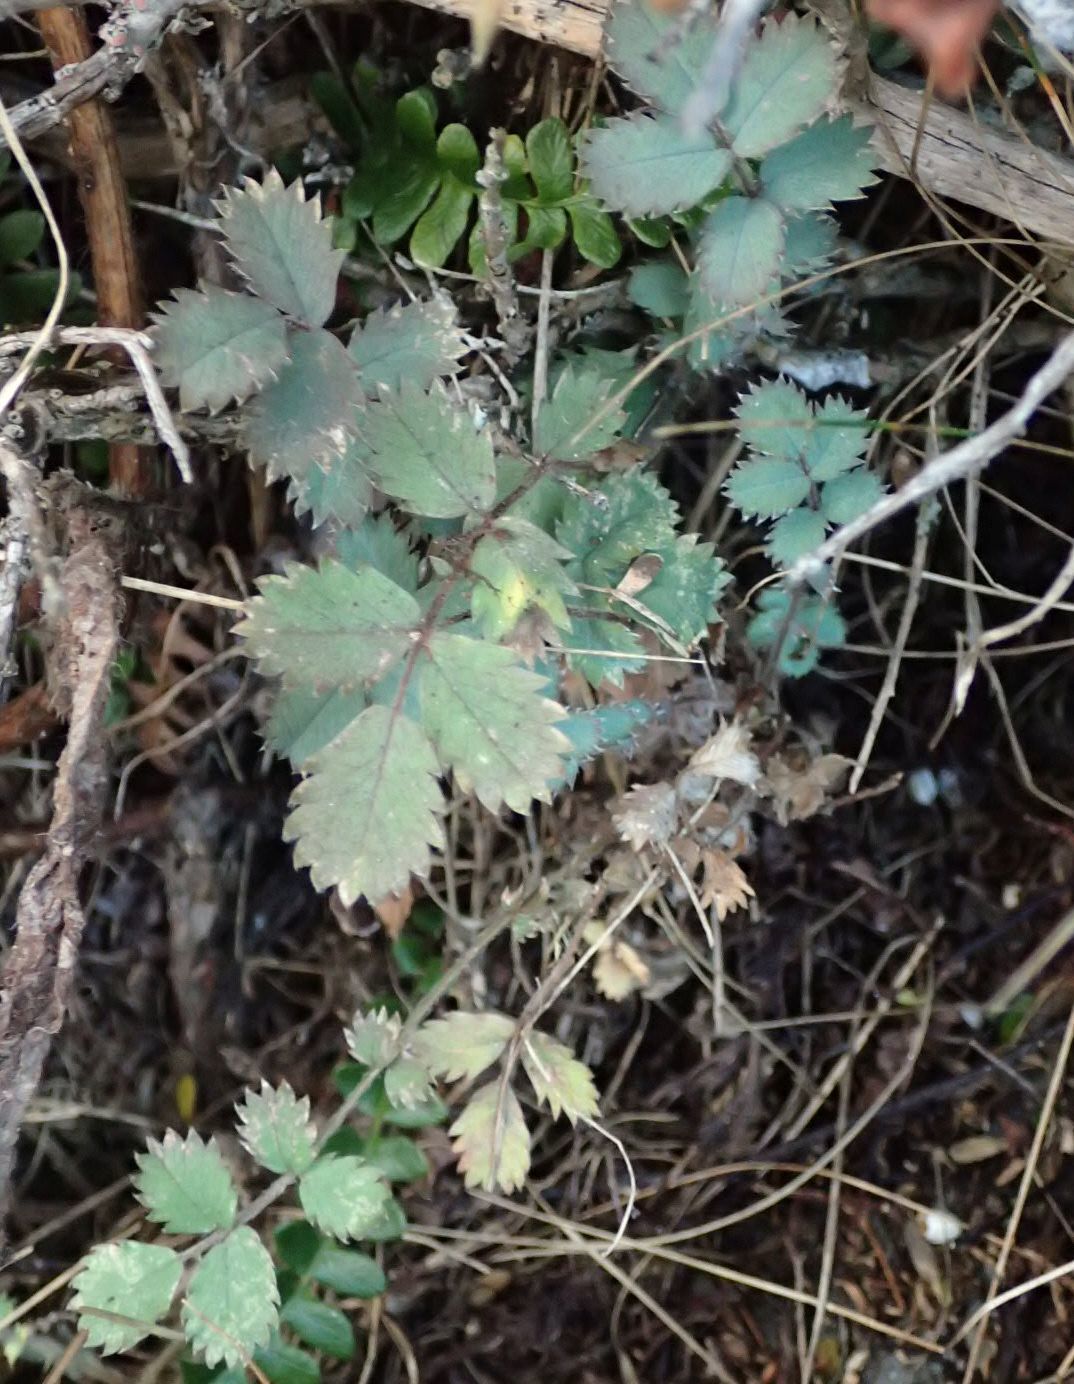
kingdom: Plantae
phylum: Tracheophyta
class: Magnoliopsida
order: Rosales
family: Rosaceae
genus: Acaena
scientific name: Acaena caesiiglauca
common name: Glaucous pirri-pirri-bur
